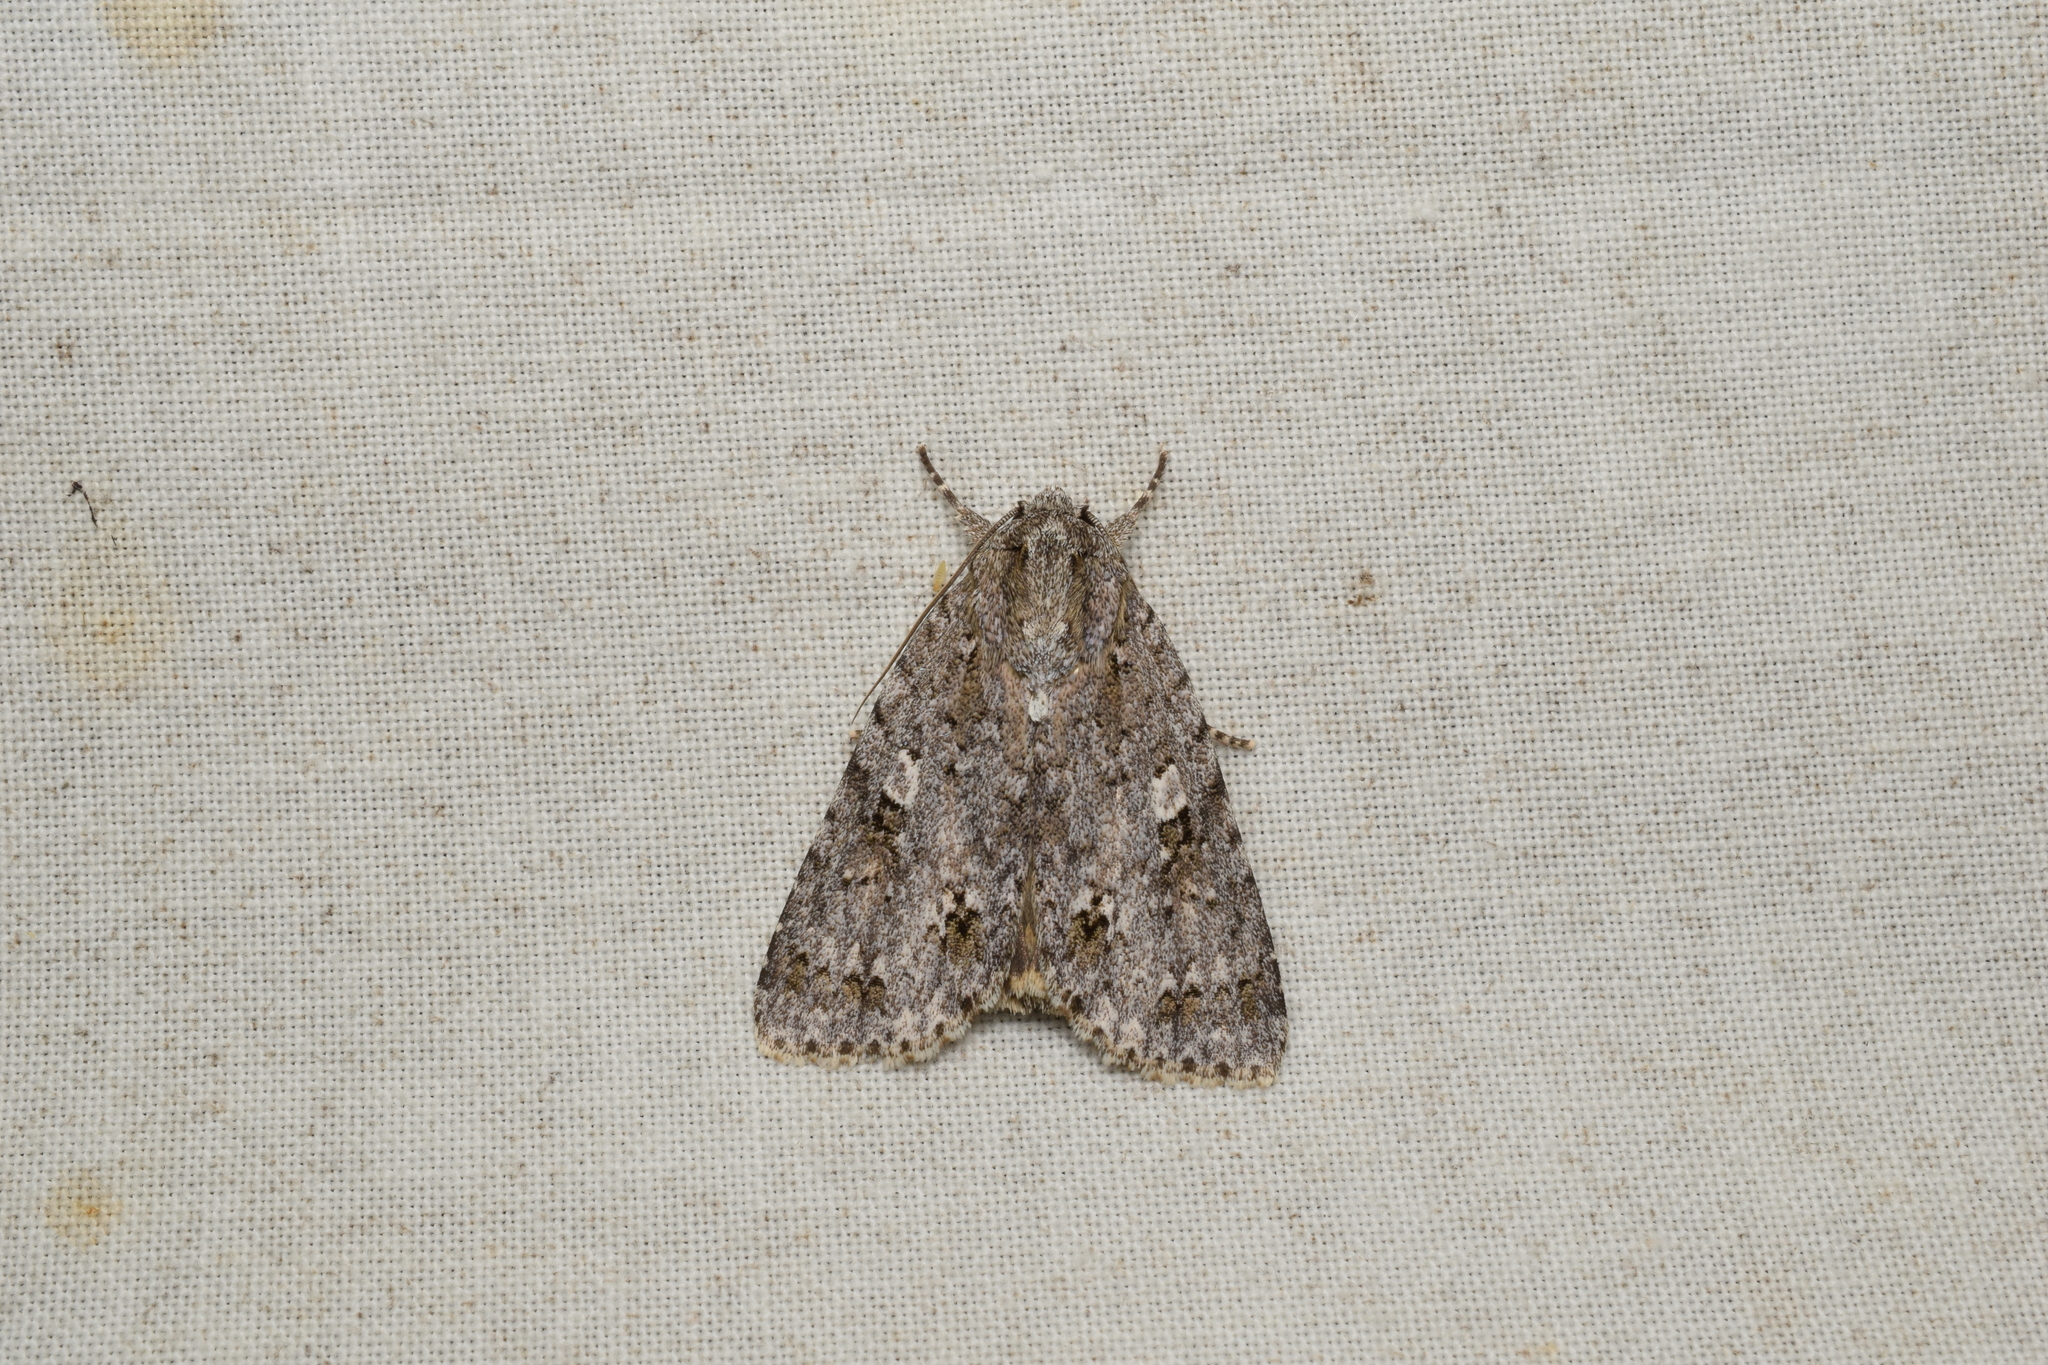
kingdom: Animalia
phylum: Arthropoda
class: Insecta
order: Lepidoptera
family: Noctuidae
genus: Acronicta
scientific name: Acronicta albistigma
